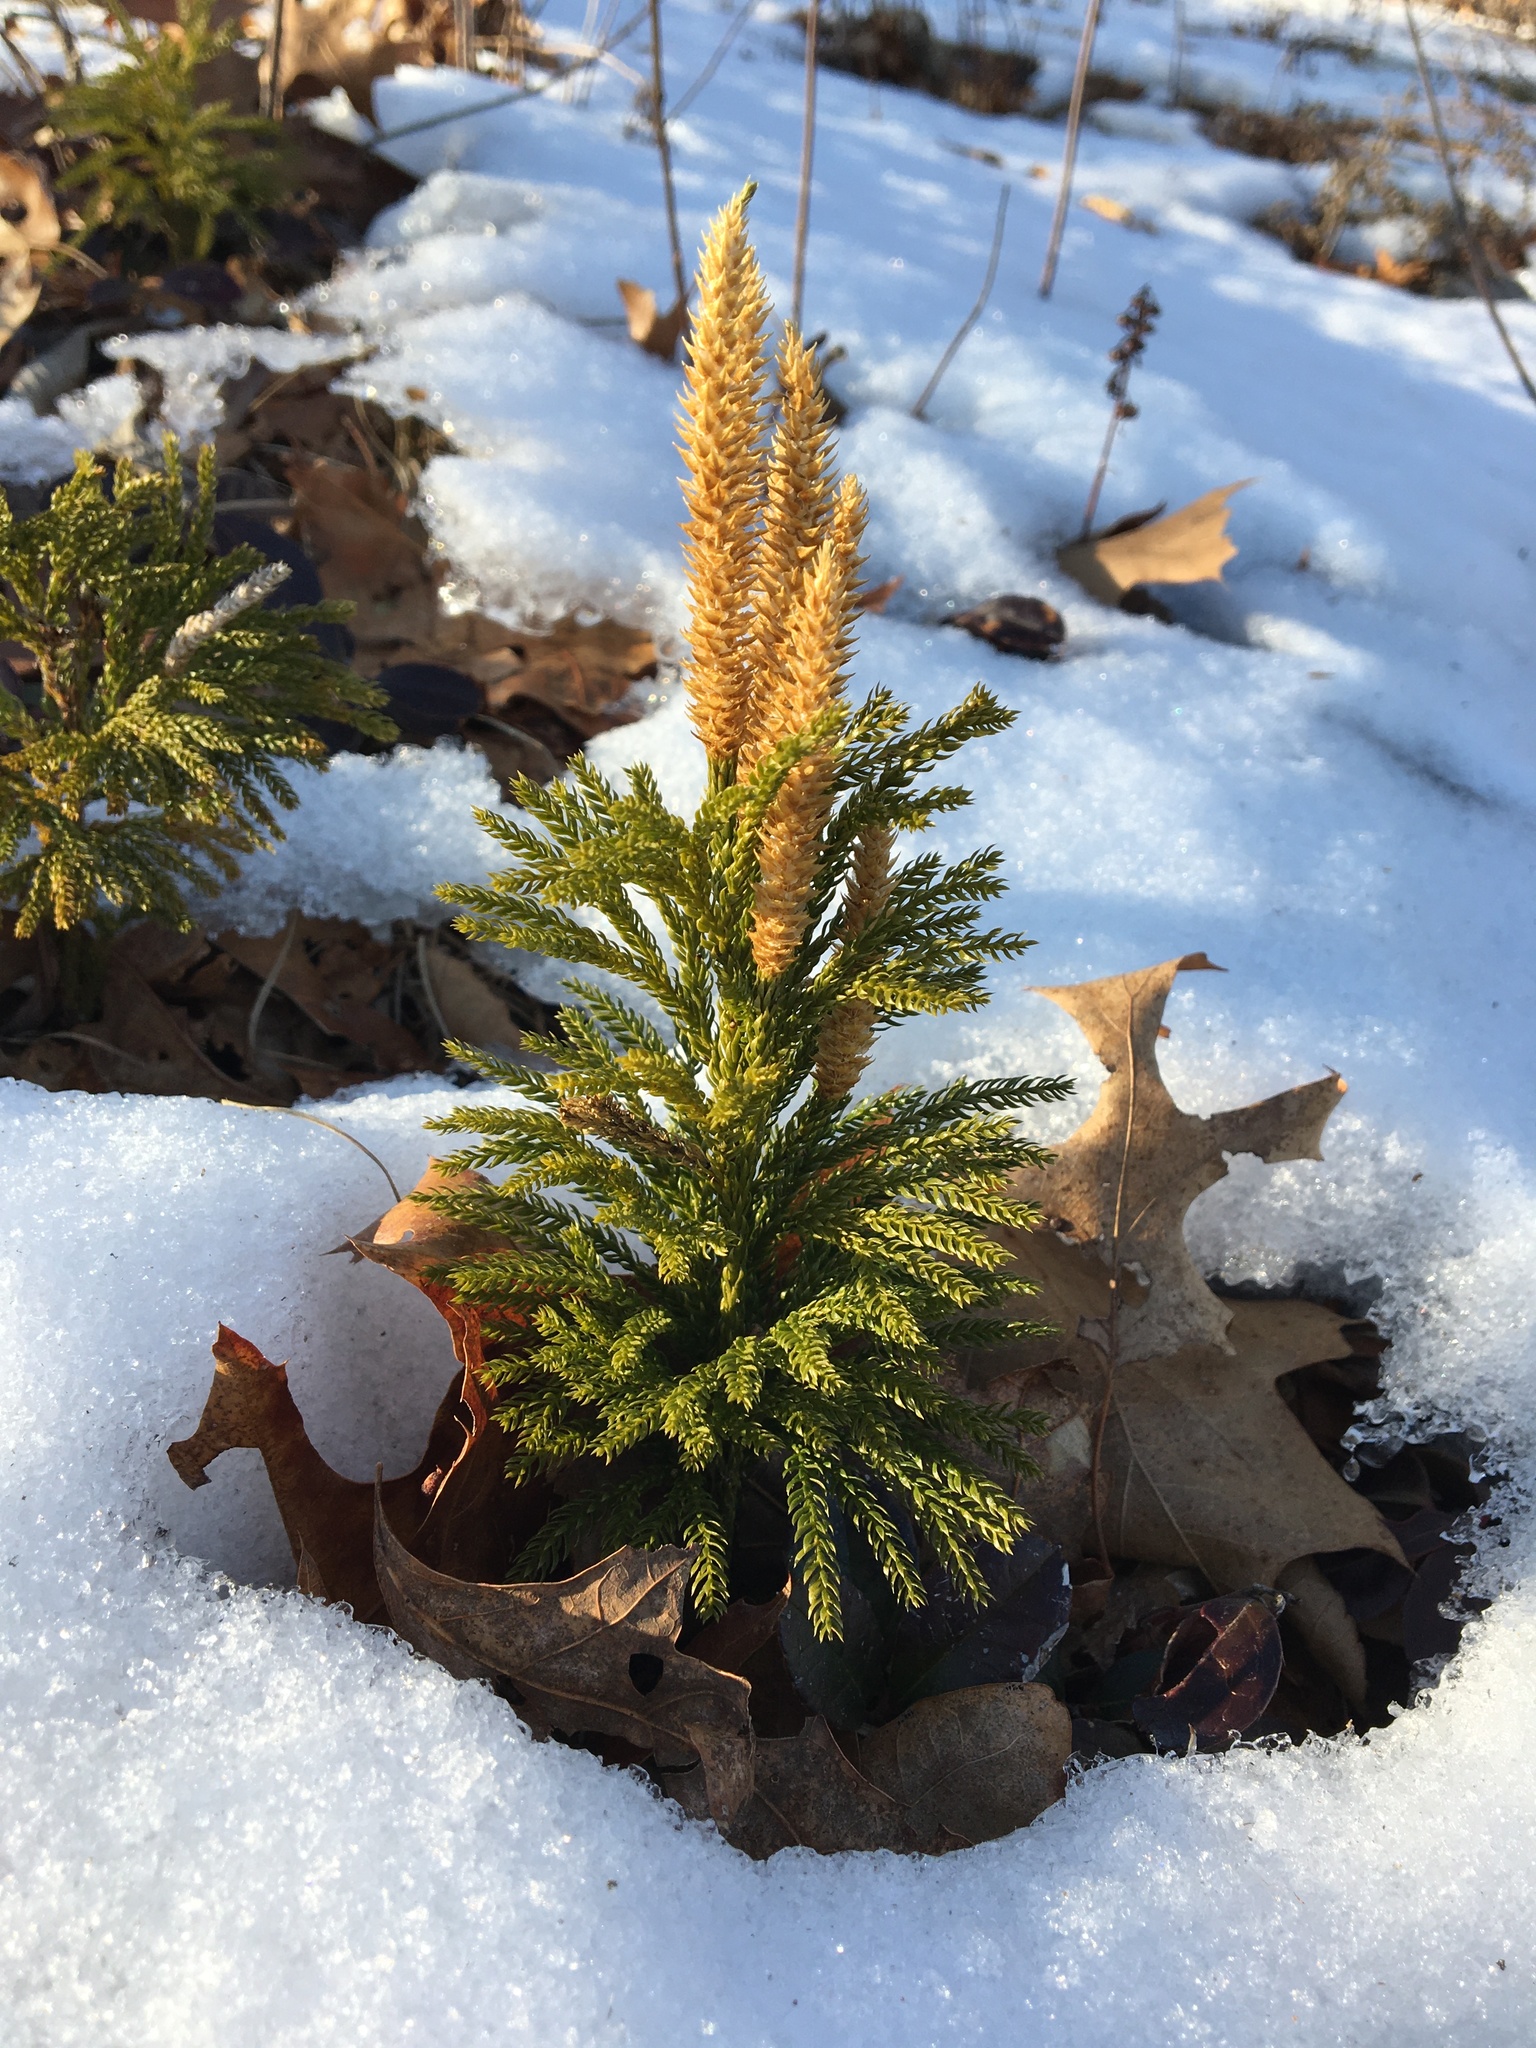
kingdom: Plantae
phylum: Tracheophyta
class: Lycopodiopsida
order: Lycopodiales
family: Lycopodiaceae
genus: Dendrolycopodium
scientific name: Dendrolycopodium hickeyi
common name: Hickey's clubmoss
